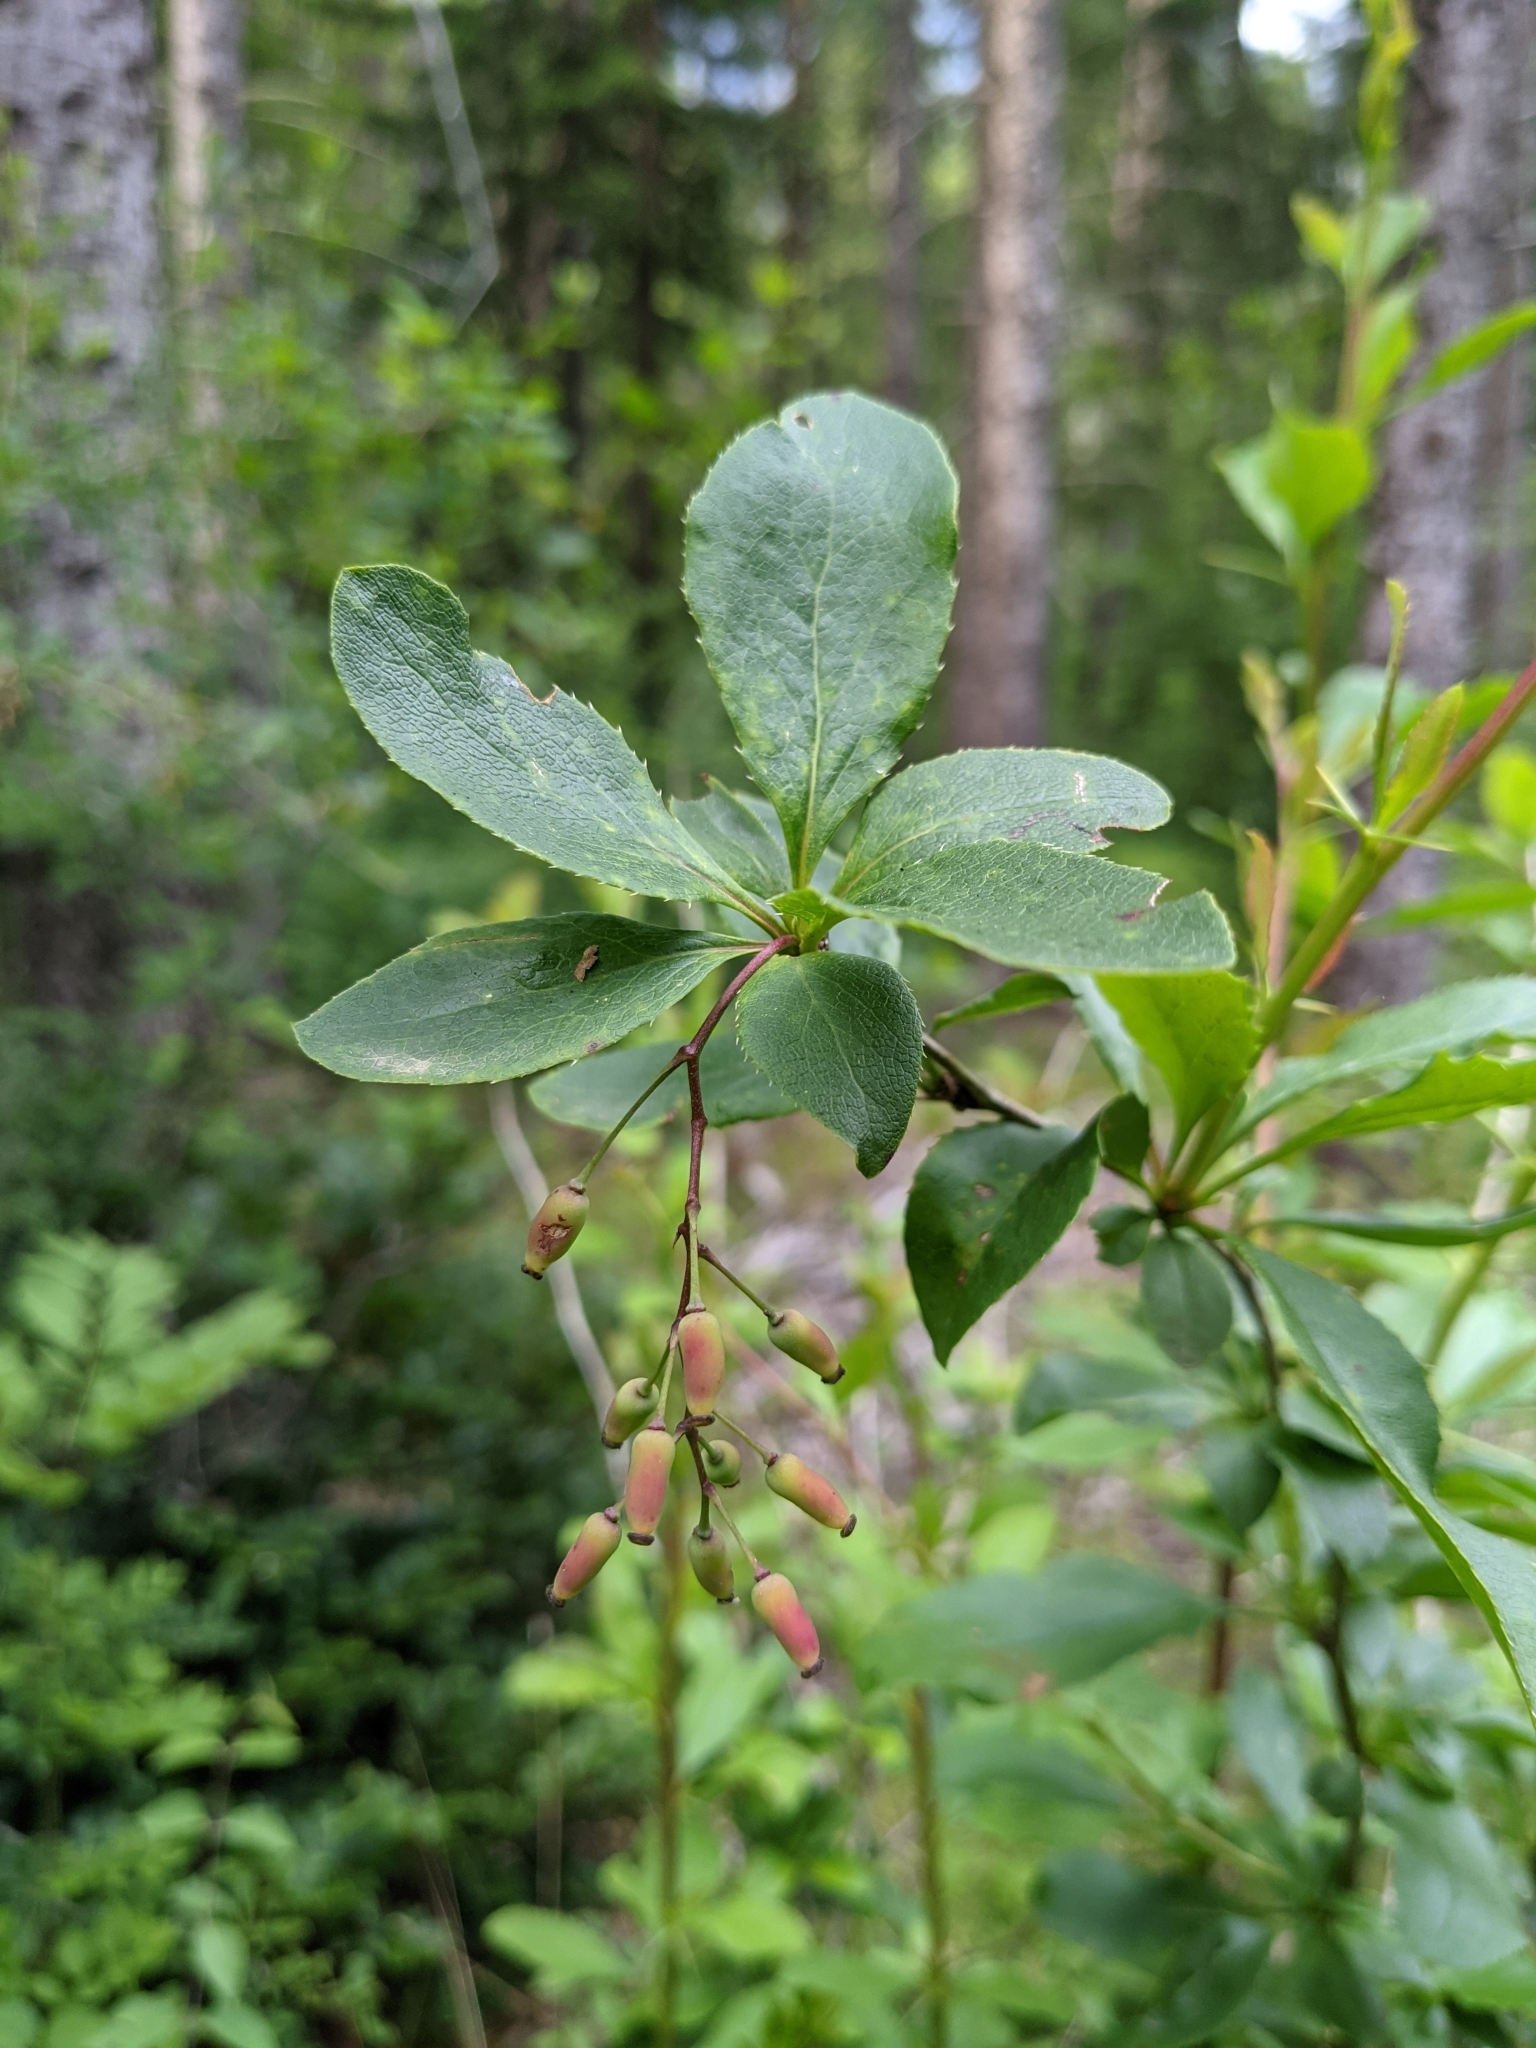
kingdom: Plantae
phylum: Tracheophyta
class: Magnoliopsida
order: Ranunculales
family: Berberidaceae
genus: Berberis
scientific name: Berberis vulgaris
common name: Barberry
